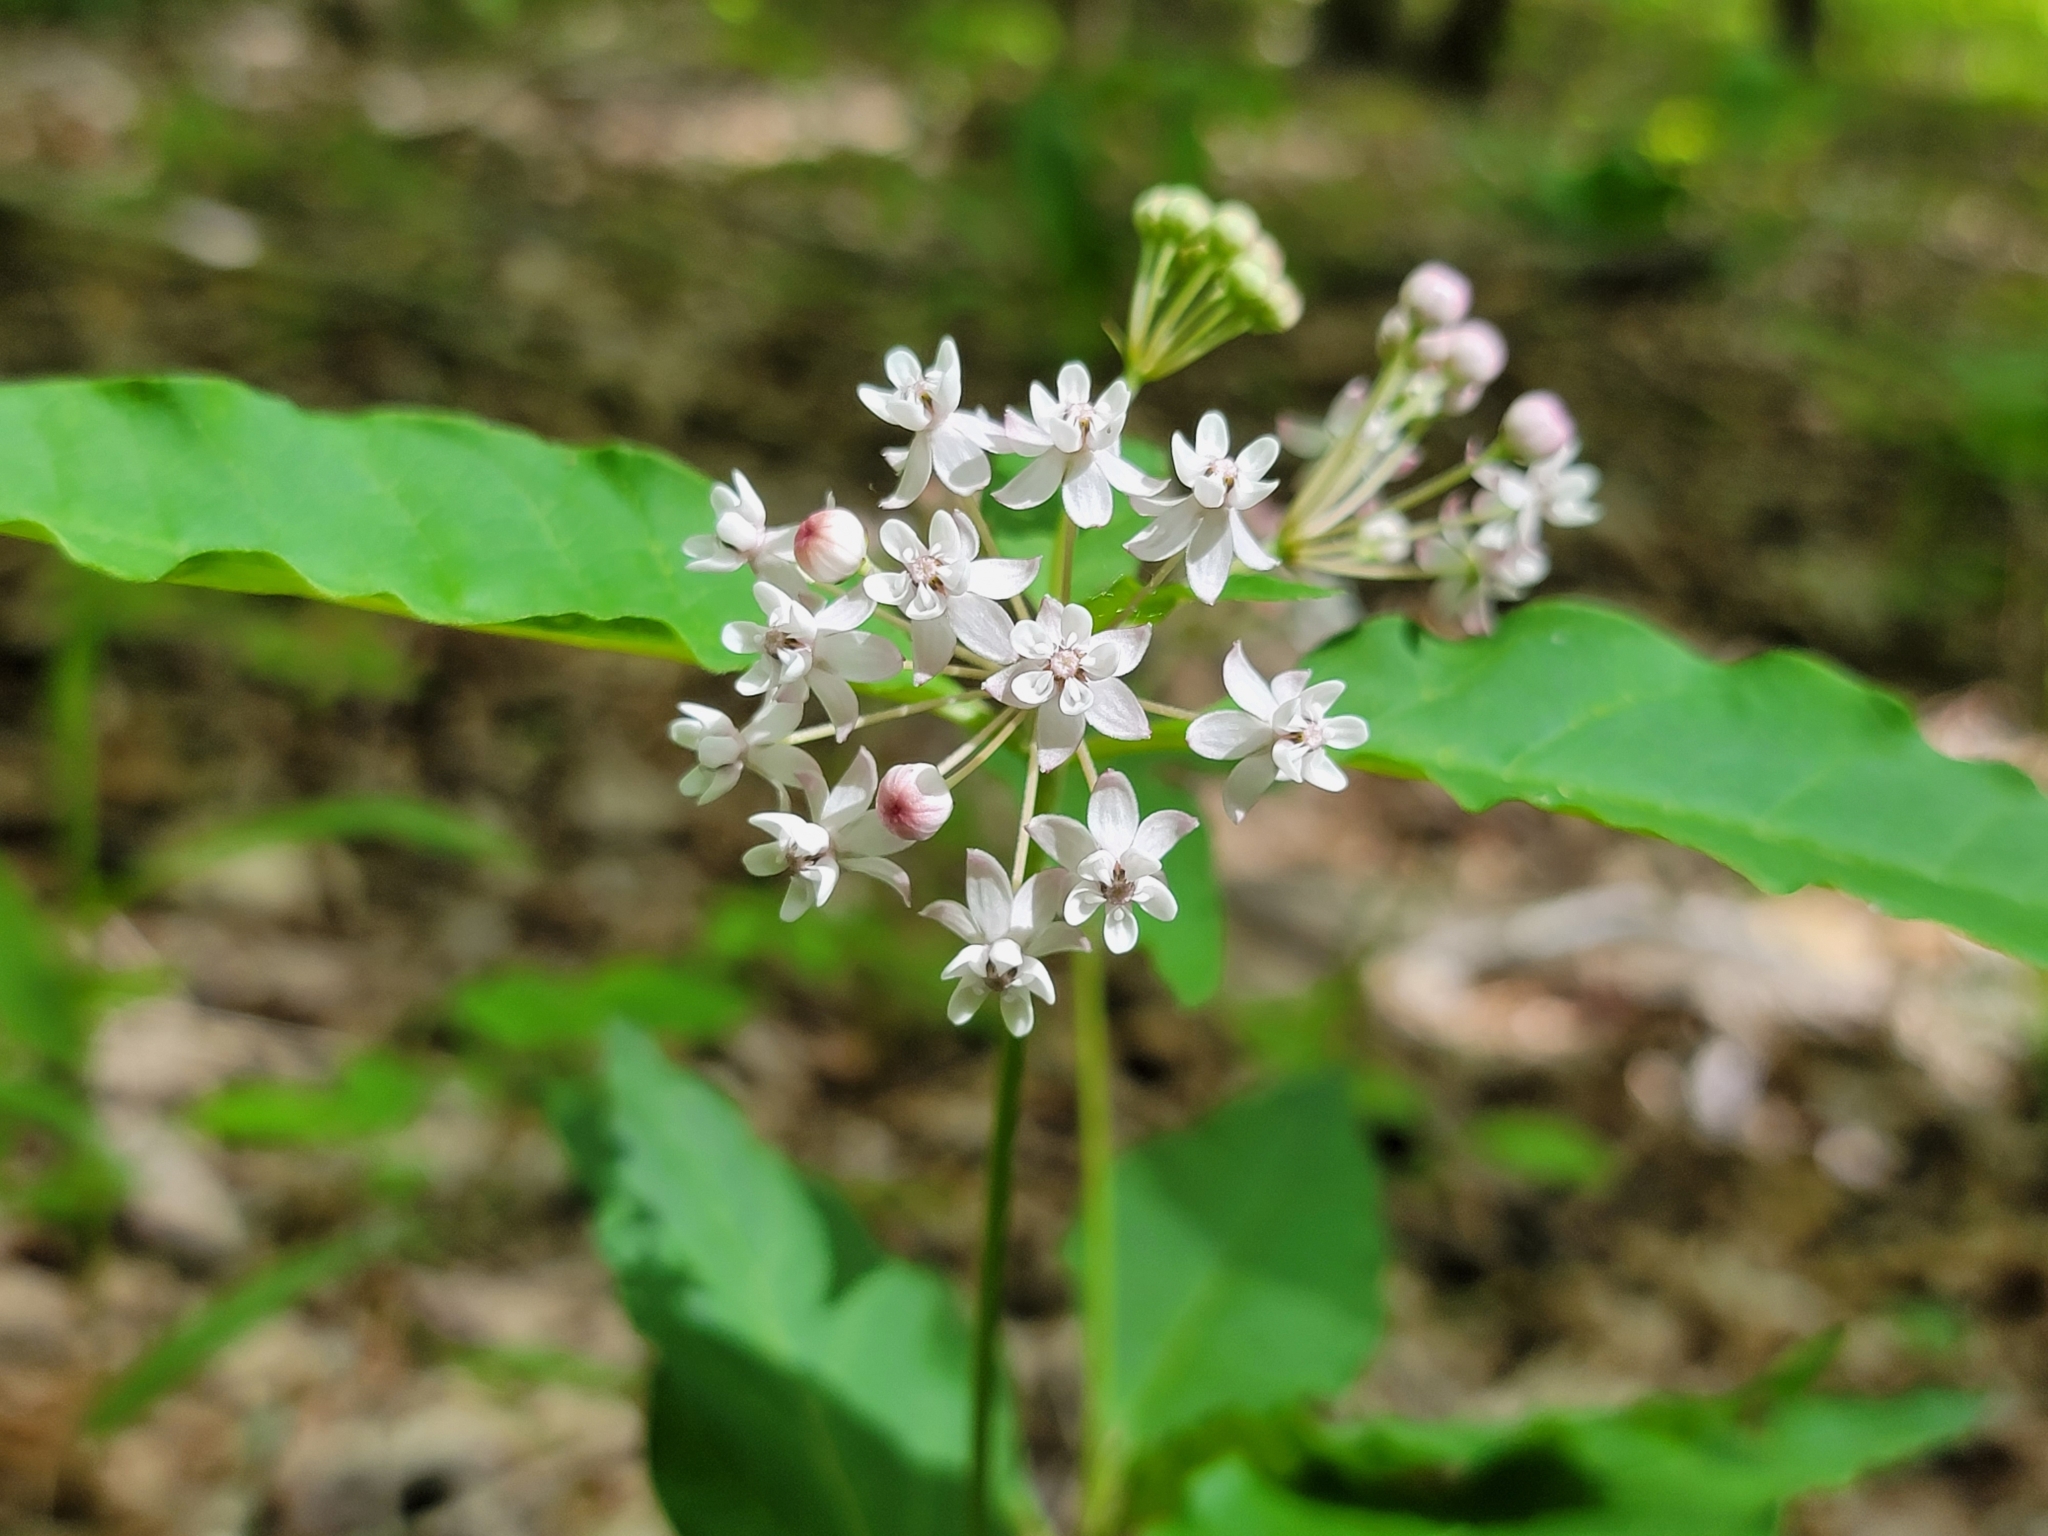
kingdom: Plantae
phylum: Tracheophyta
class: Magnoliopsida
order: Gentianales
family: Apocynaceae
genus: Asclepias
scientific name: Asclepias quadrifolia
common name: Whorled milkweed
